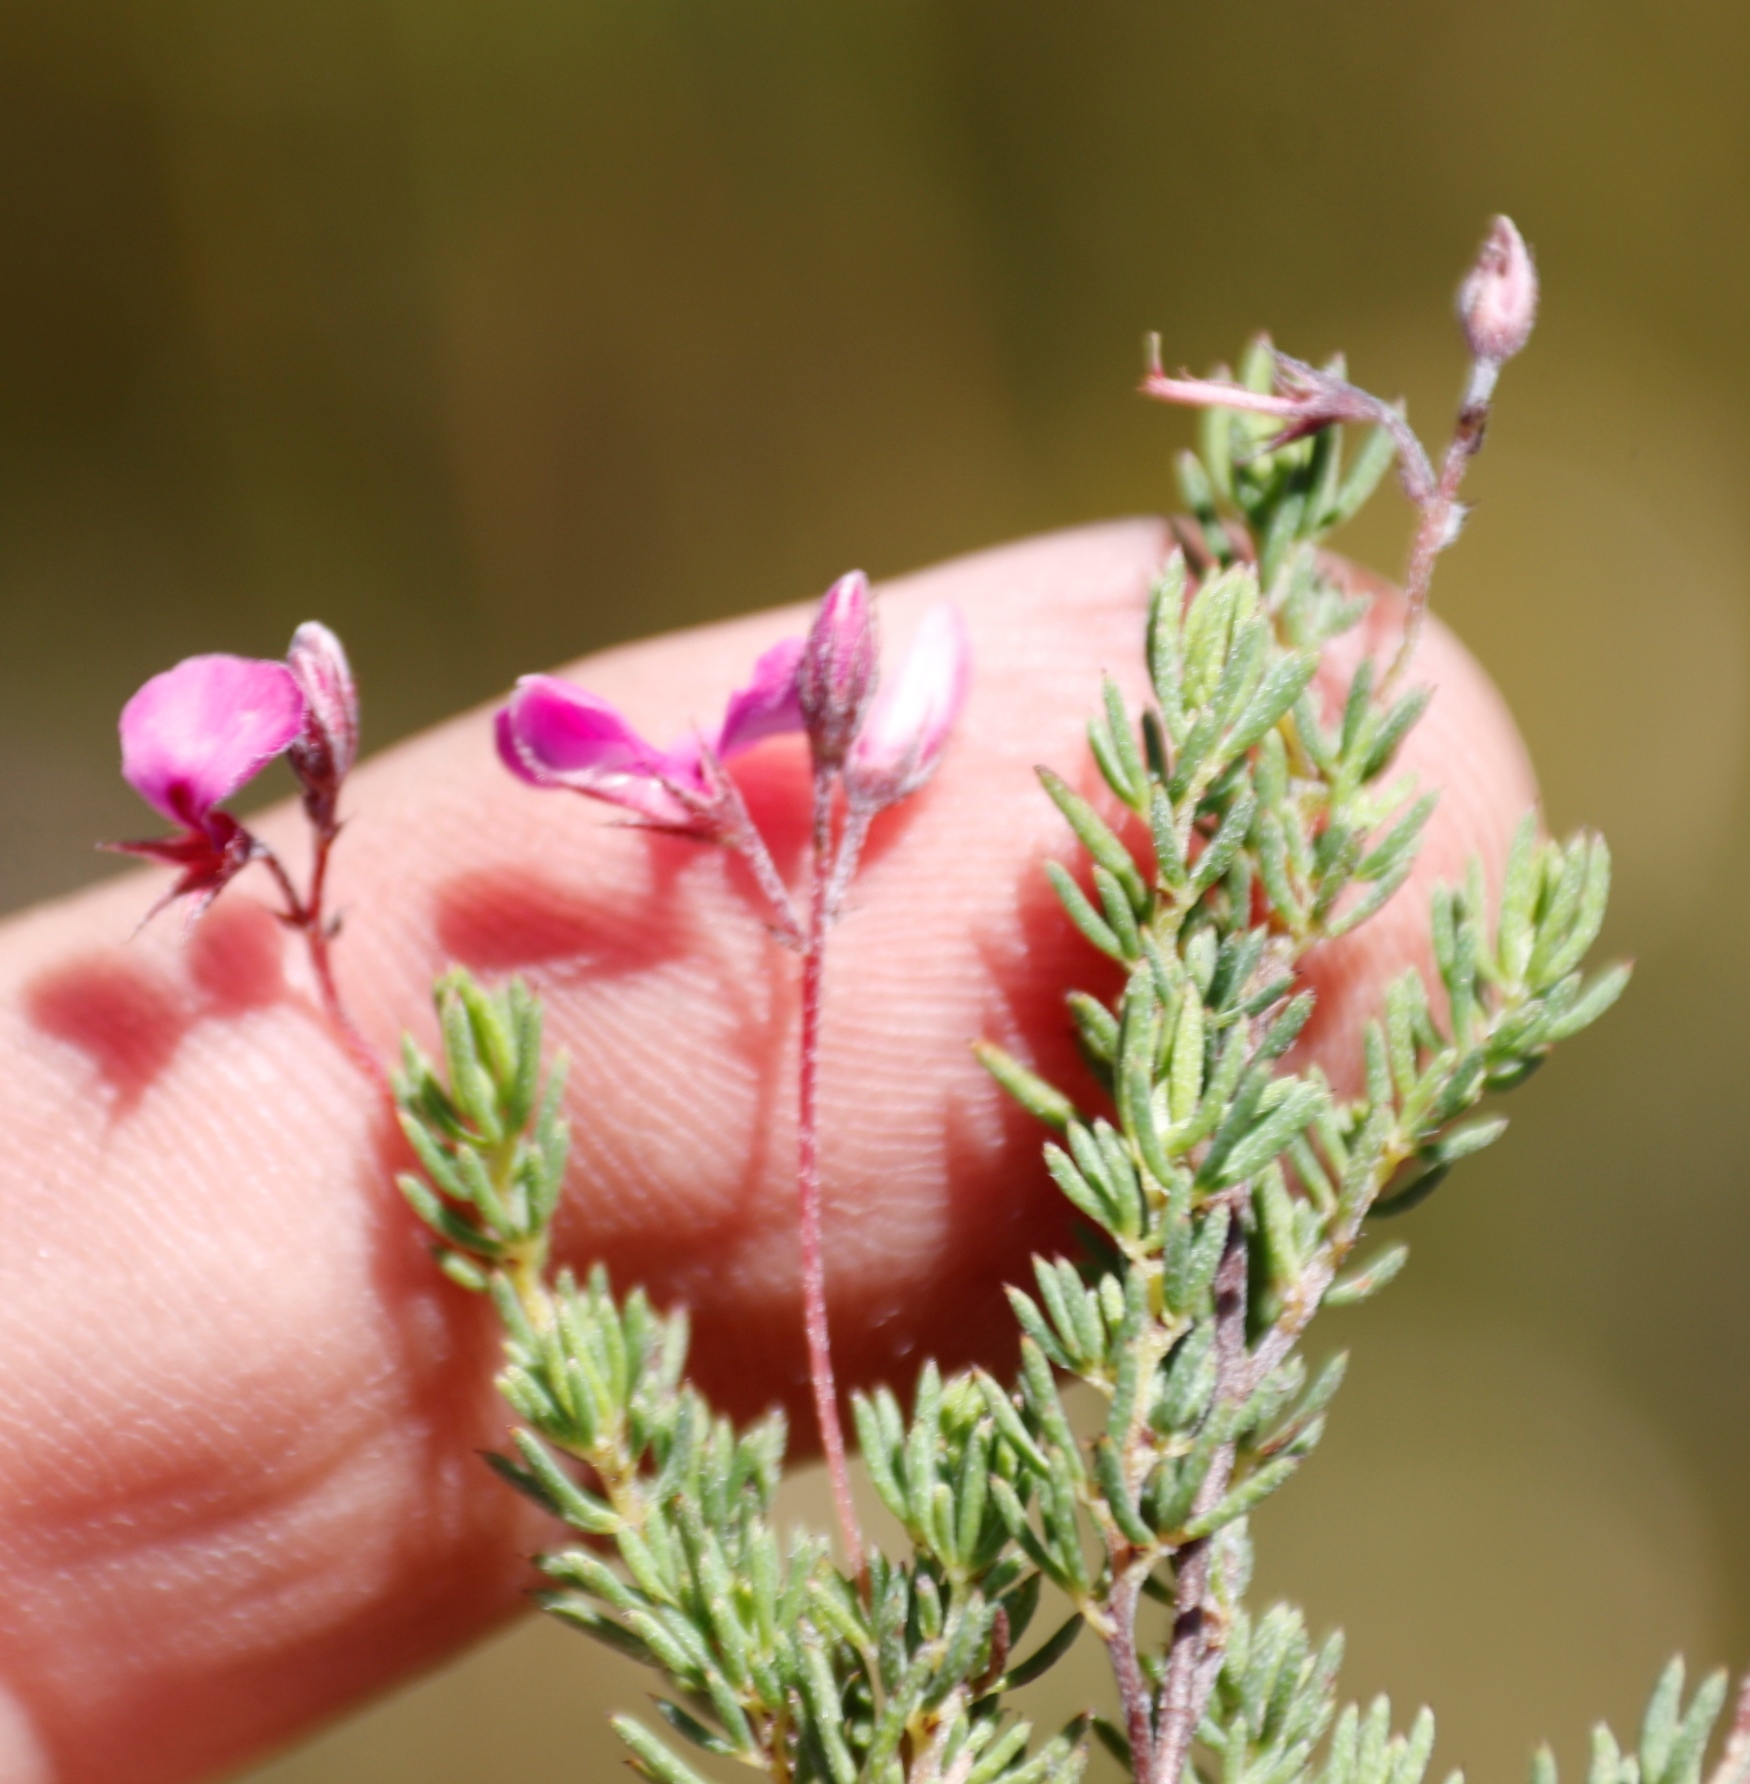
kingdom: Plantae
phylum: Tracheophyta
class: Magnoliopsida
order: Fabales
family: Fabaceae
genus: Indigofera
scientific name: Indigofera quinquefolia
